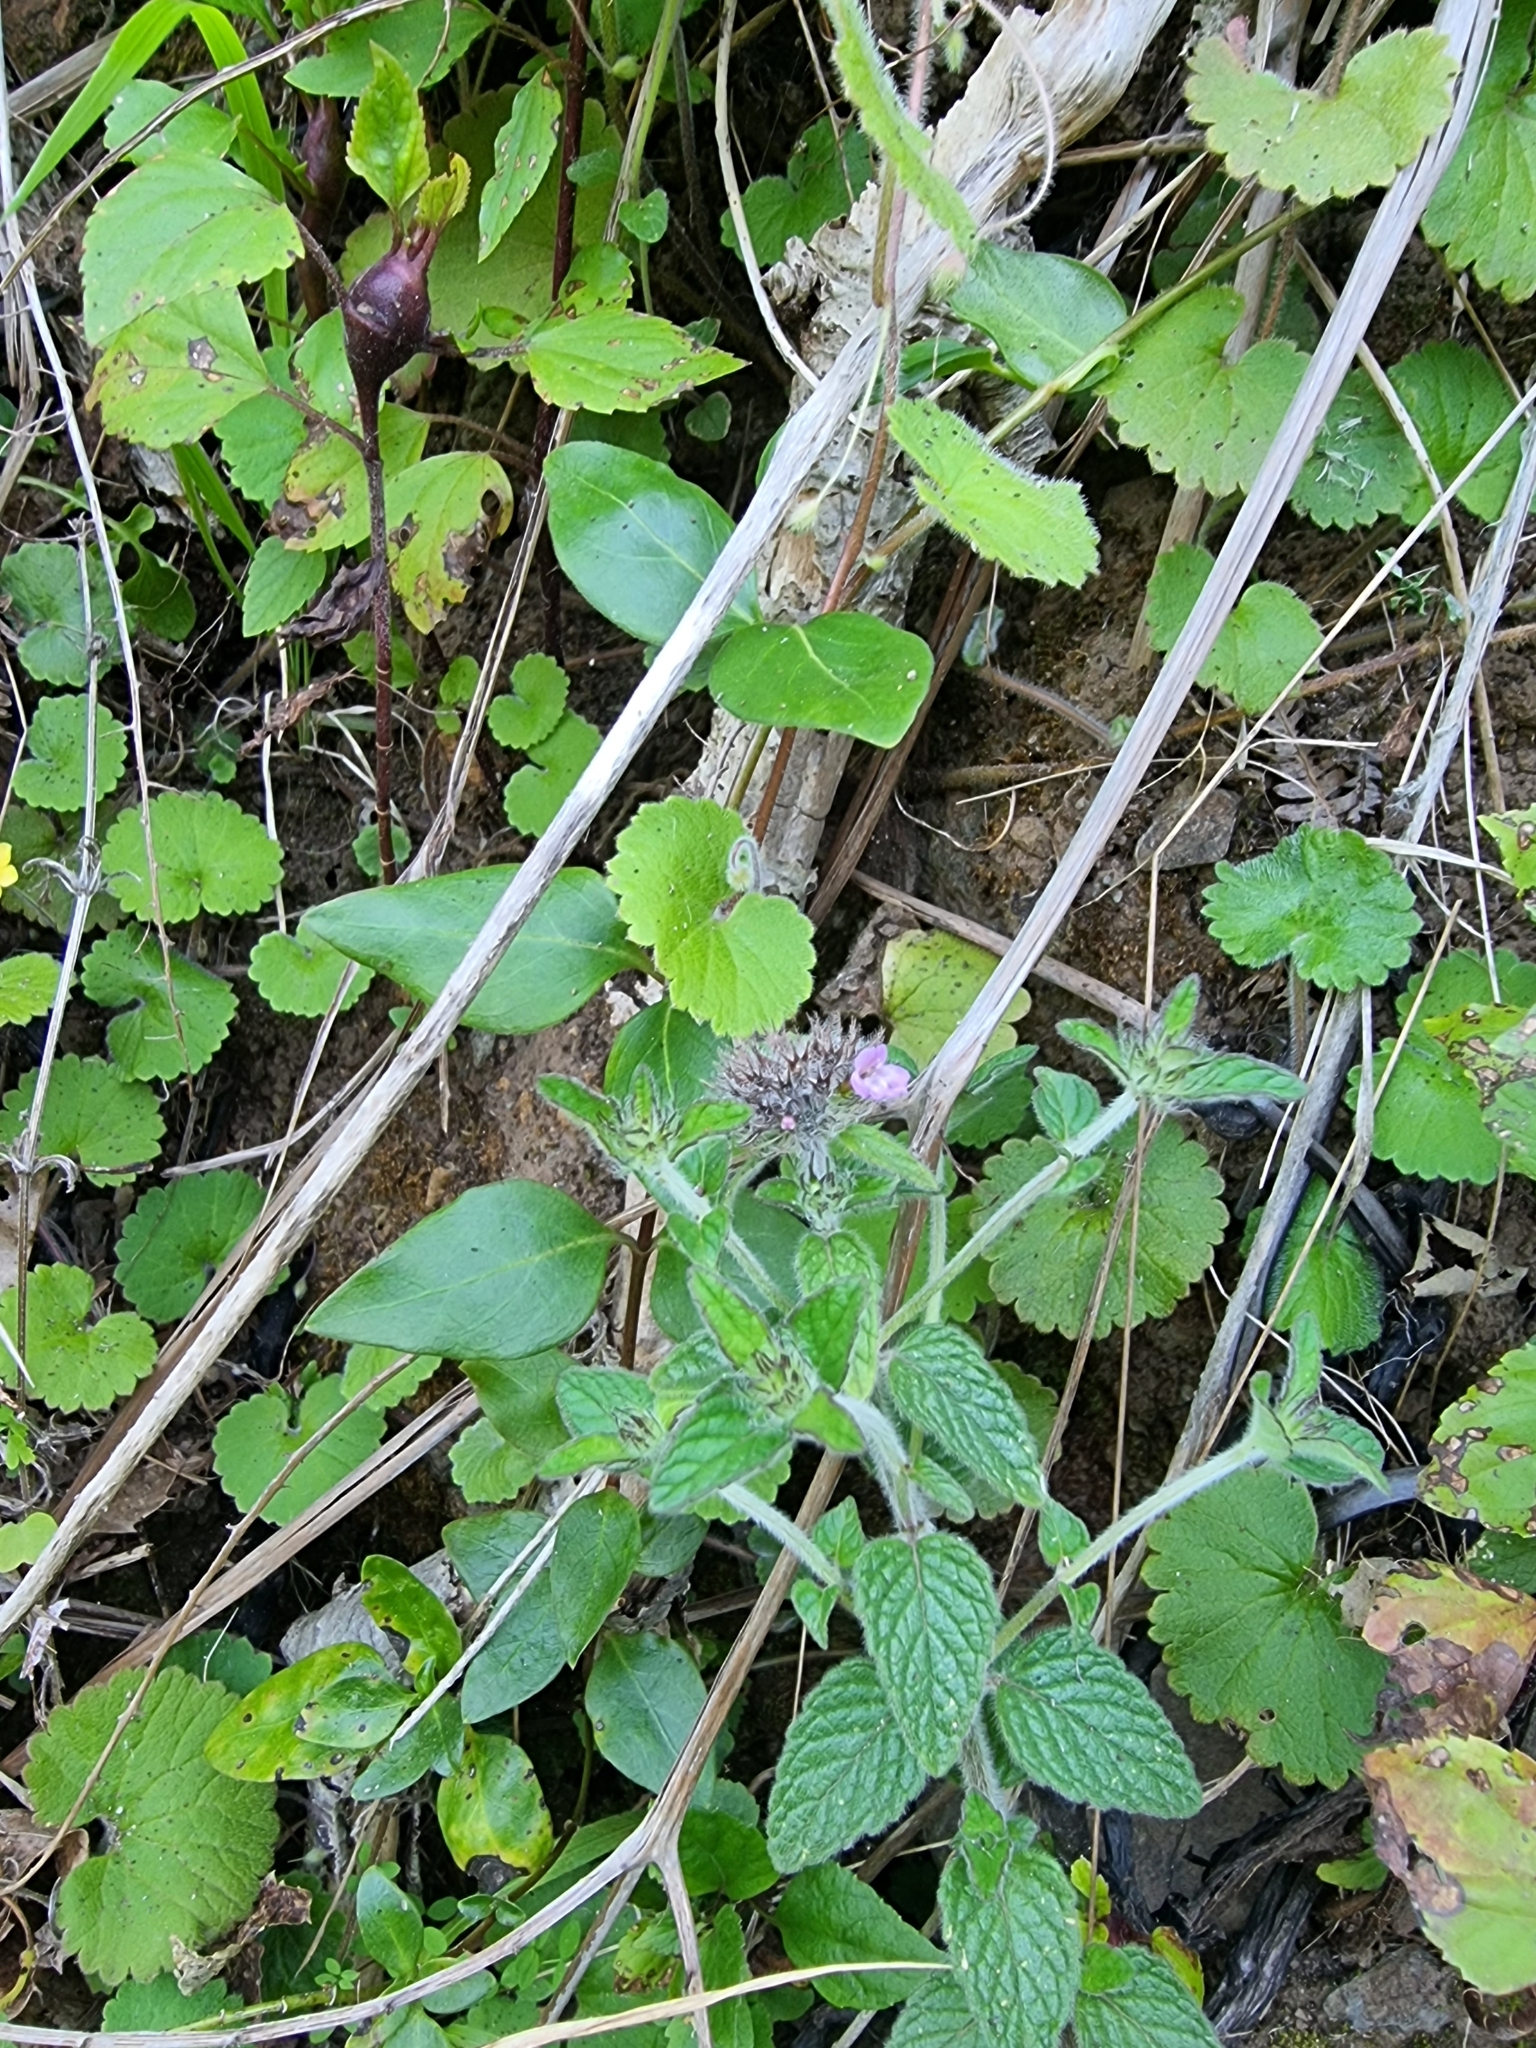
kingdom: Plantae
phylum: Tracheophyta
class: Magnoliopsida
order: Lamiales
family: Lamiaceae
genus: Clinopodium
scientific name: Clinopodium vulgare
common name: Wild basil
